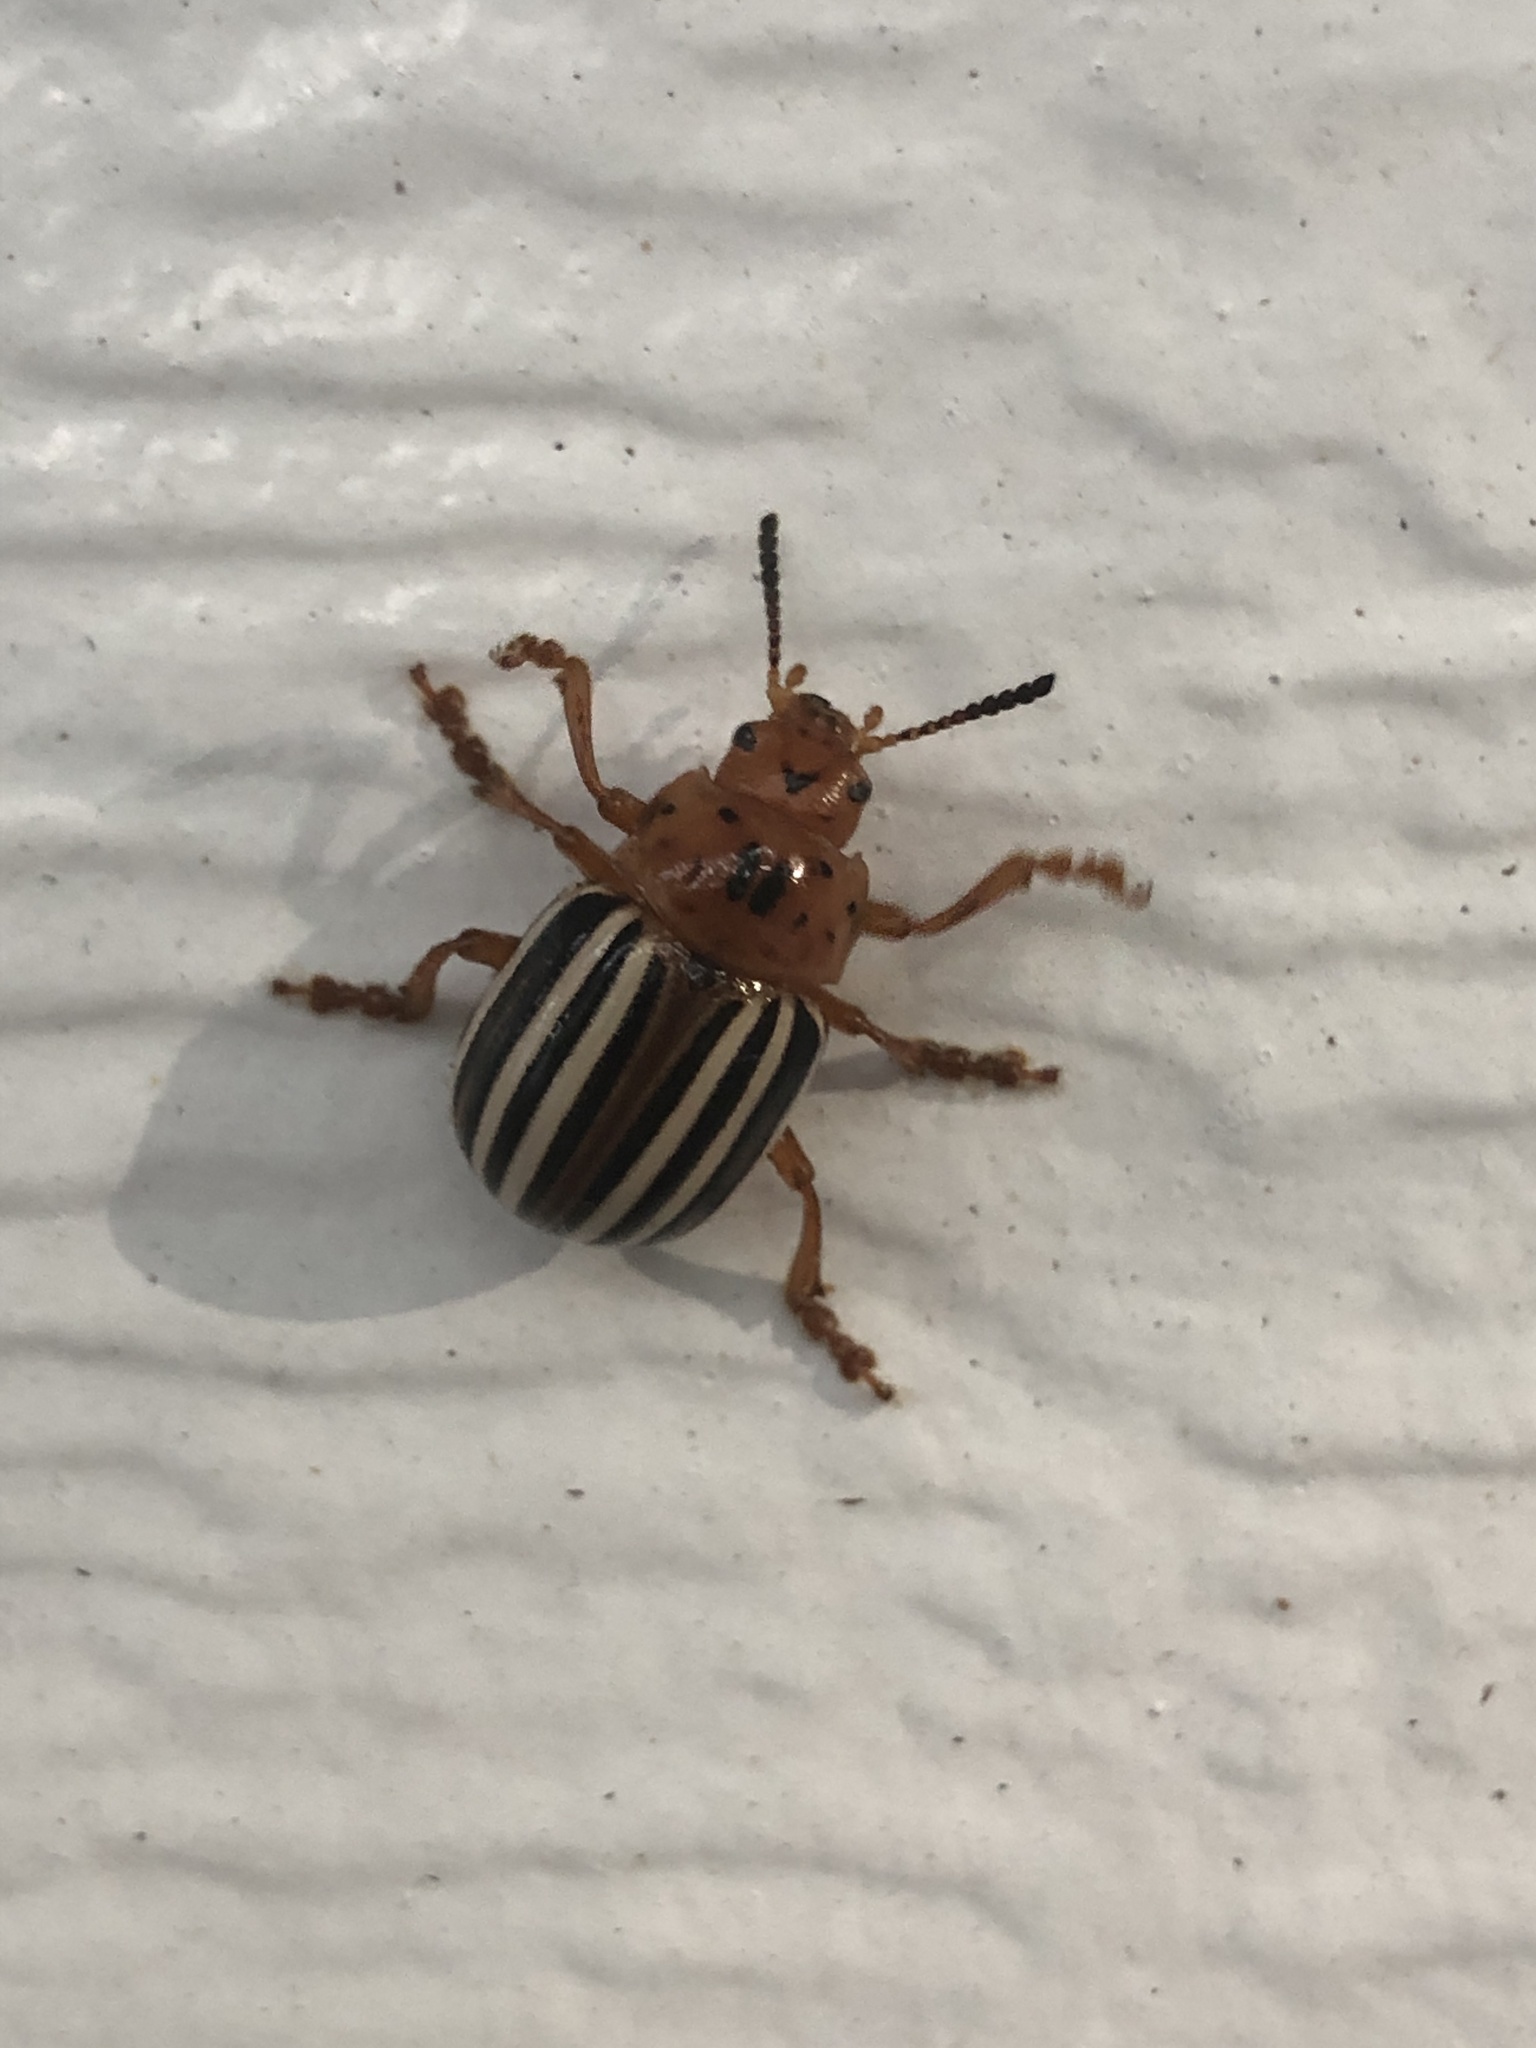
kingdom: Animalia
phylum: Arthropoda
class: Insecta
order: Coleoptera
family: Chrysomelidae
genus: Leptinotarsa
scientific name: Leptinotarsa juncta
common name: False potato beetle
